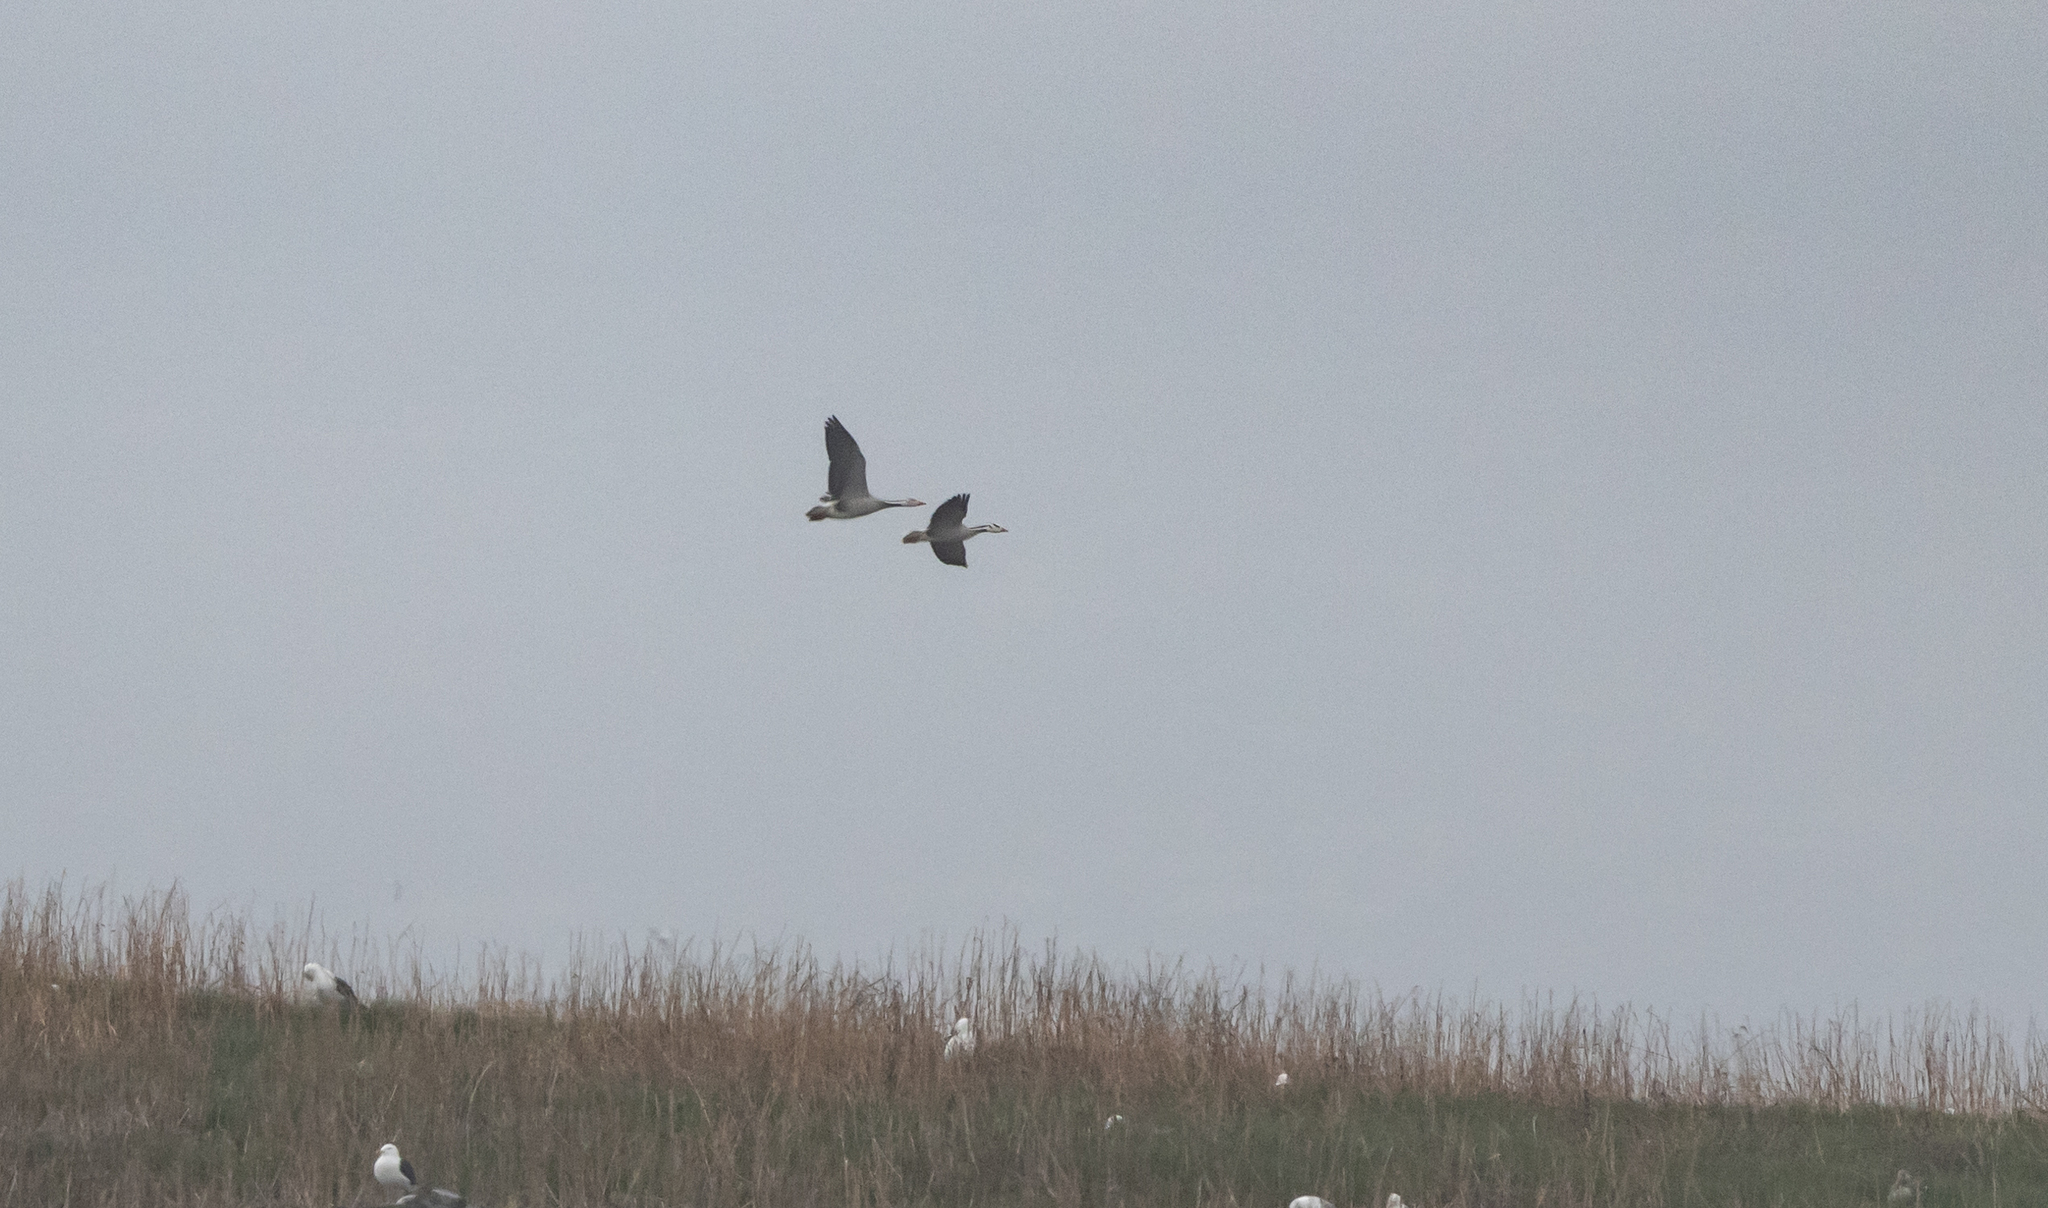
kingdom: Animalia
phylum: Chordata
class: Aves
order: Anseriformes
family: Anatidae
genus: Anser
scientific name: Anser indicus
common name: Bar-headed goose
